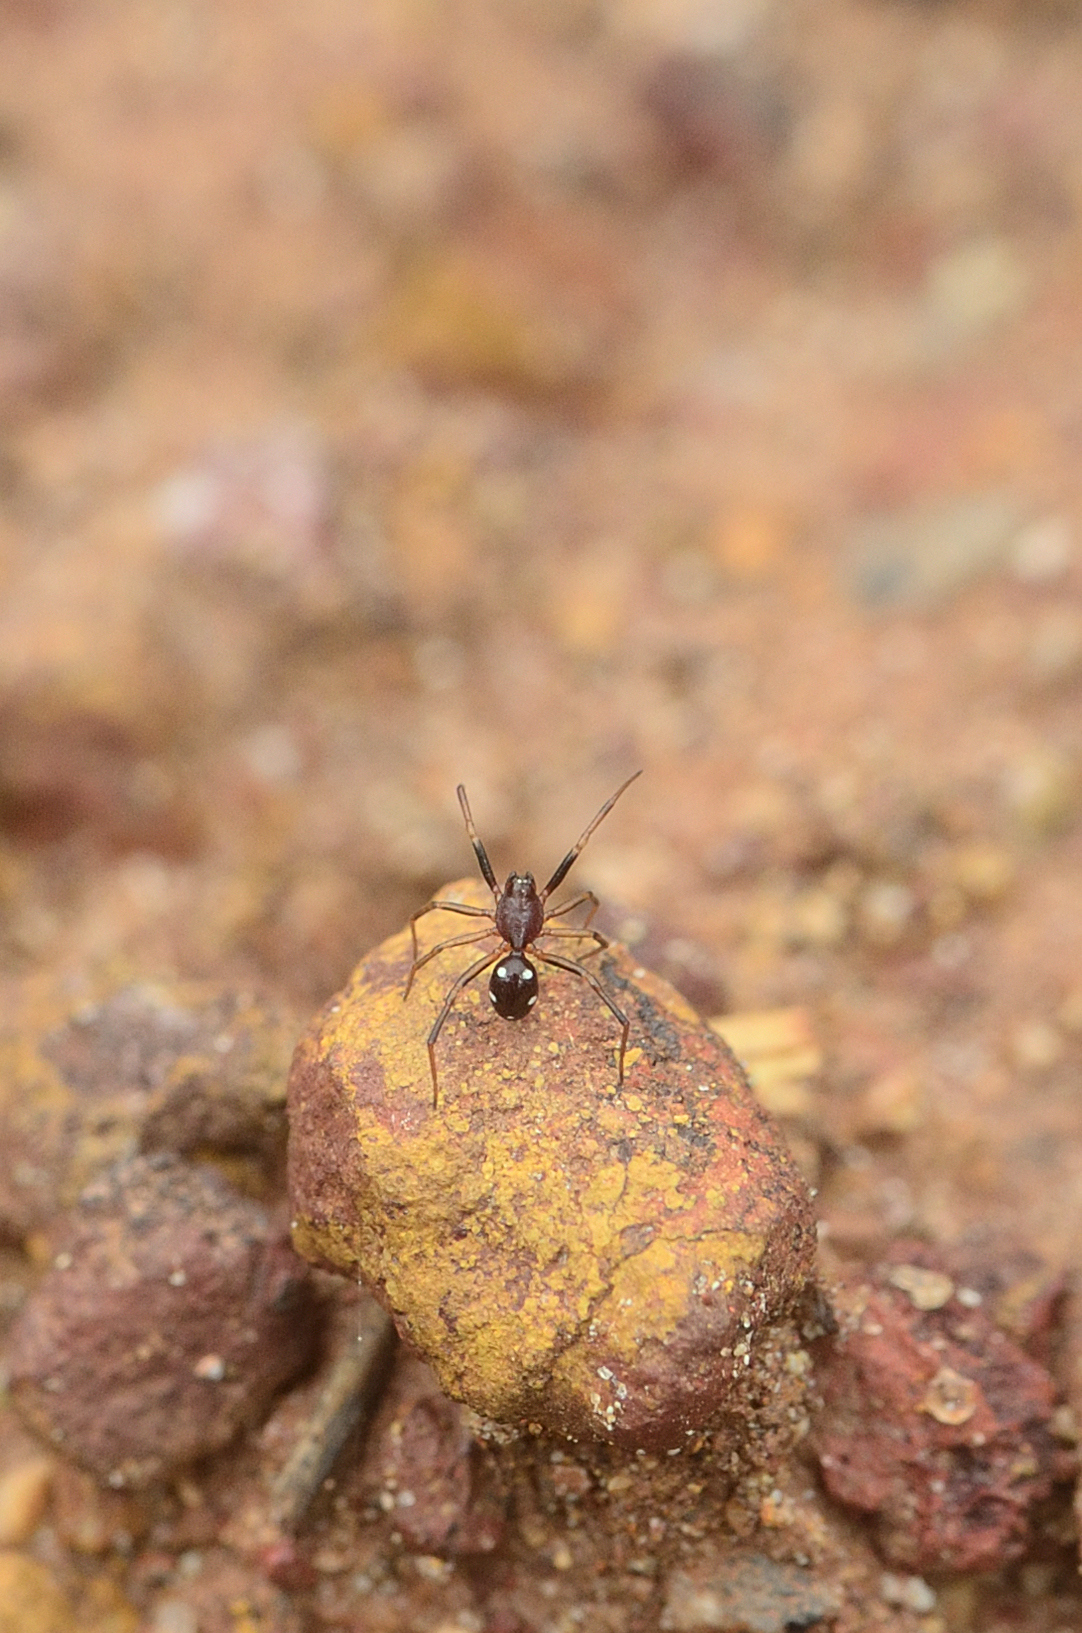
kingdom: Animalia
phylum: Arthropoda
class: Arachnida
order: Araneae
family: Theridiidae
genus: Steatoda
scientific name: Steatoda erigoniformis
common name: Cobweb spiders
